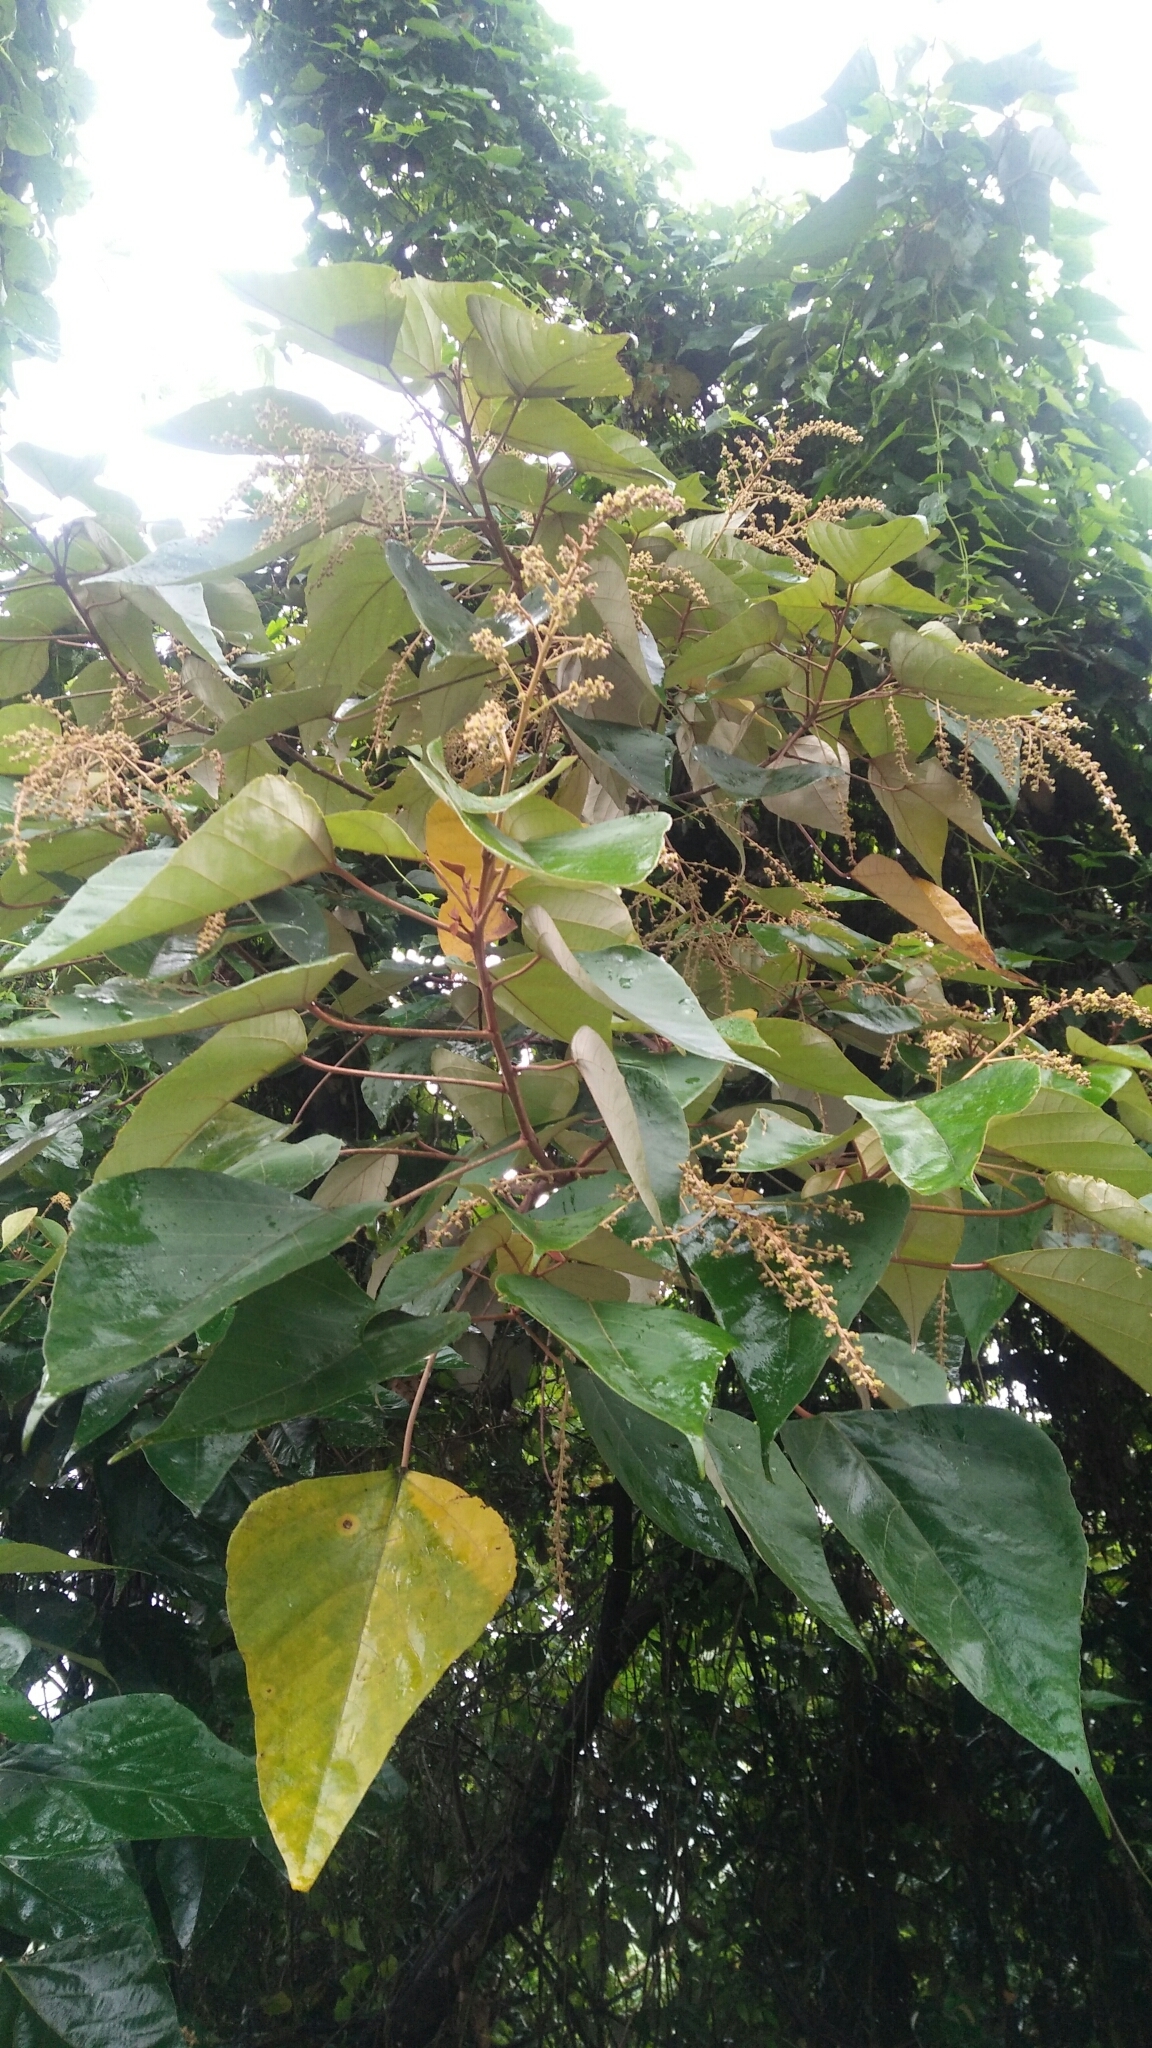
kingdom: Plantae
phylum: Tracheophyta
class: Magnoliopsida
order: Malpighiales
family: Euphorbiaceae
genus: Mallotus
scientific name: Mallotus paniculatus
